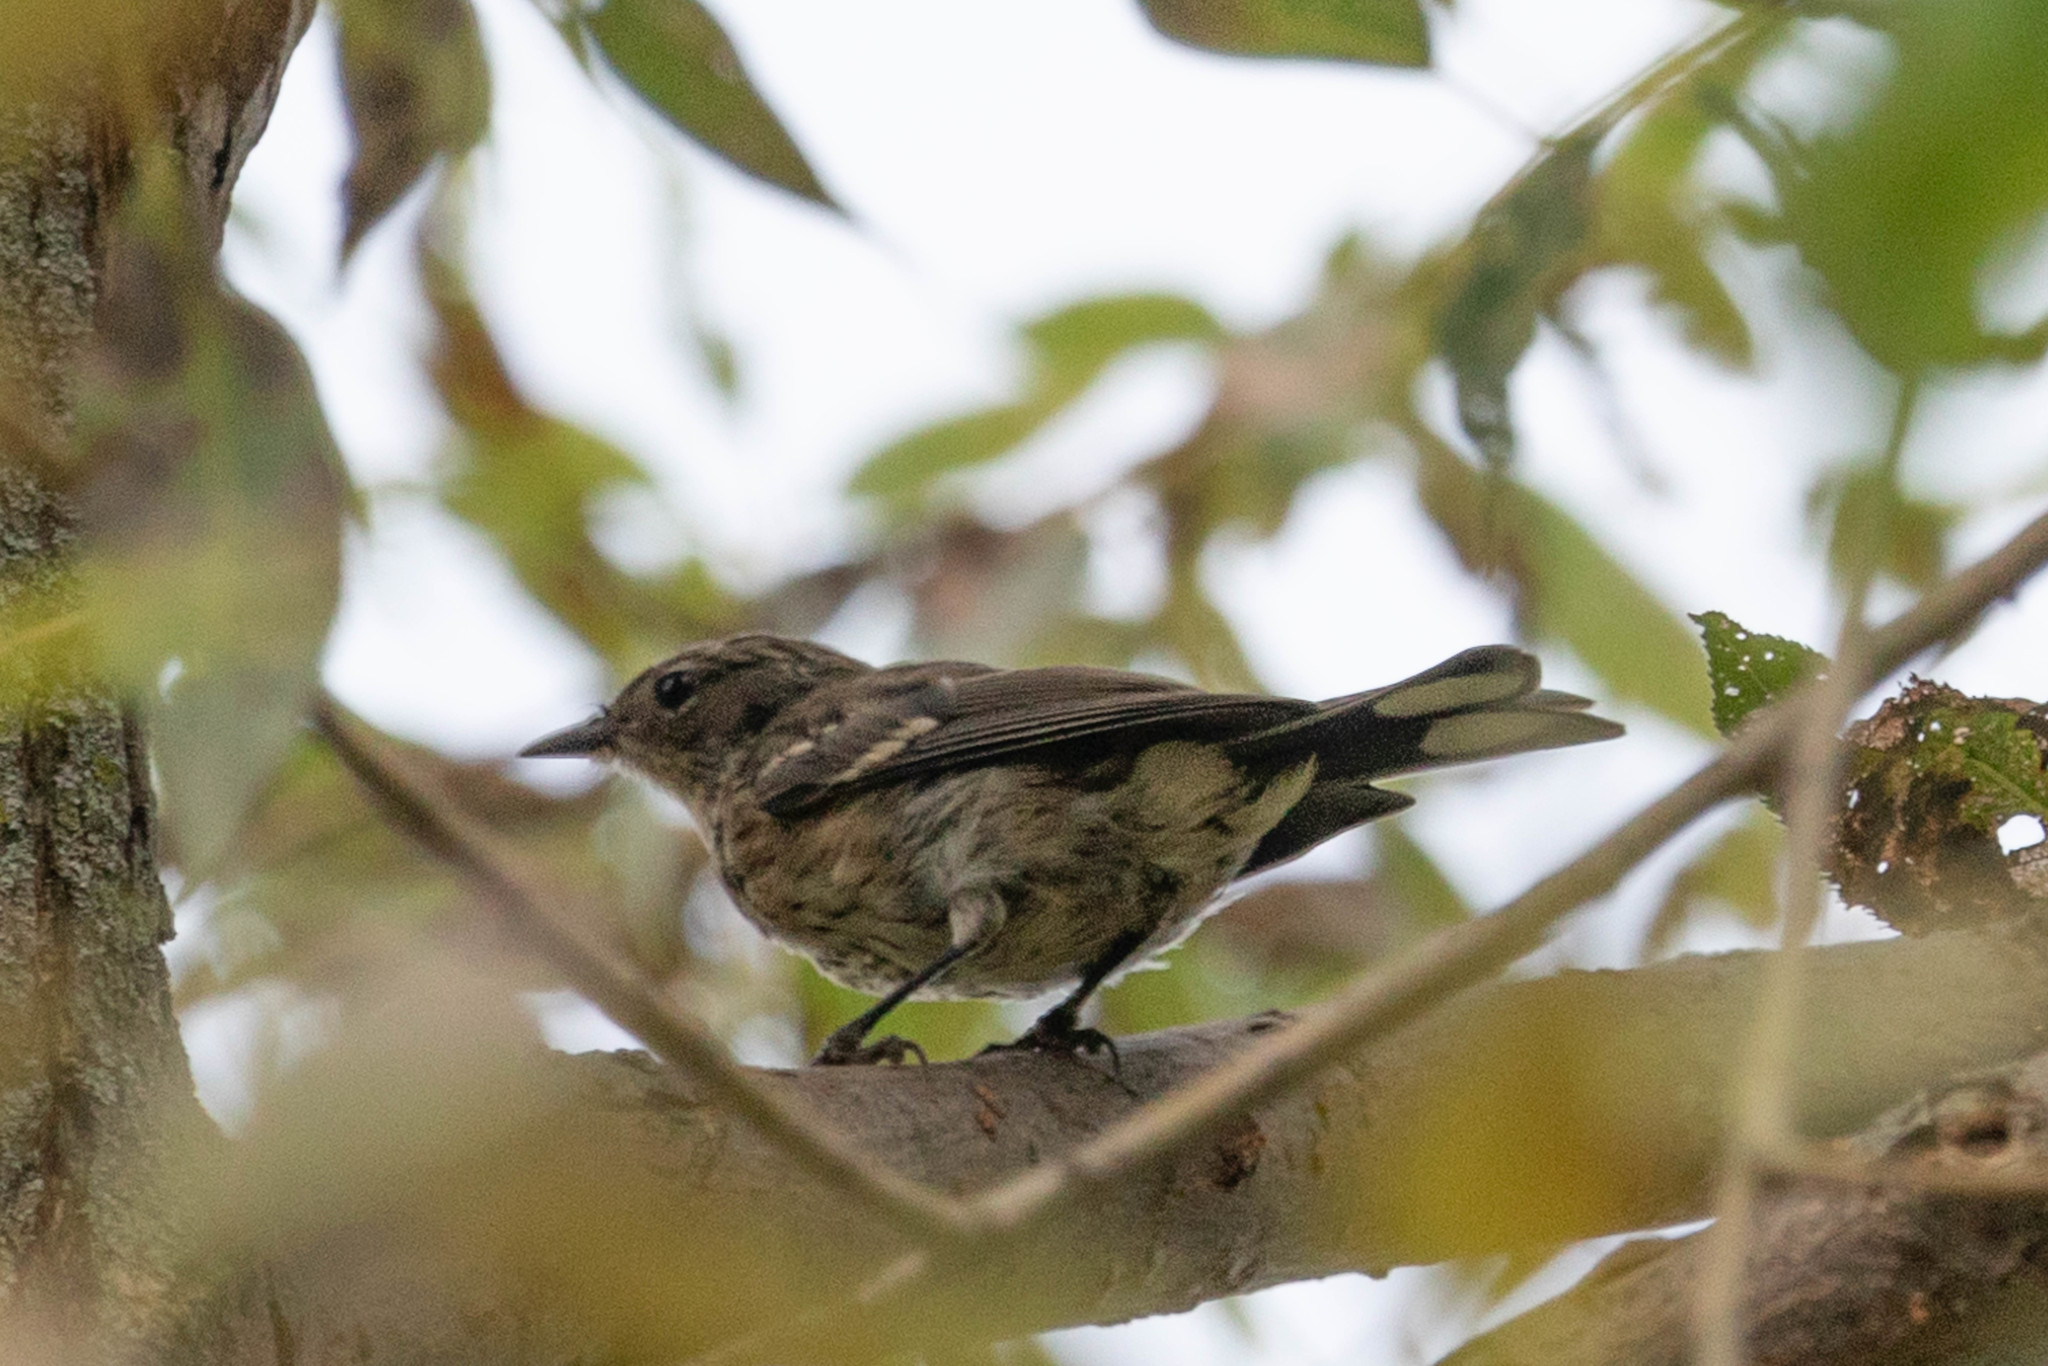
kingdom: Animalia
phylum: Chordata
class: Aves
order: Passeriformes
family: Parulidae
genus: Setophaga
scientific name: Setophaga coronata
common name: Myrtle warbler
